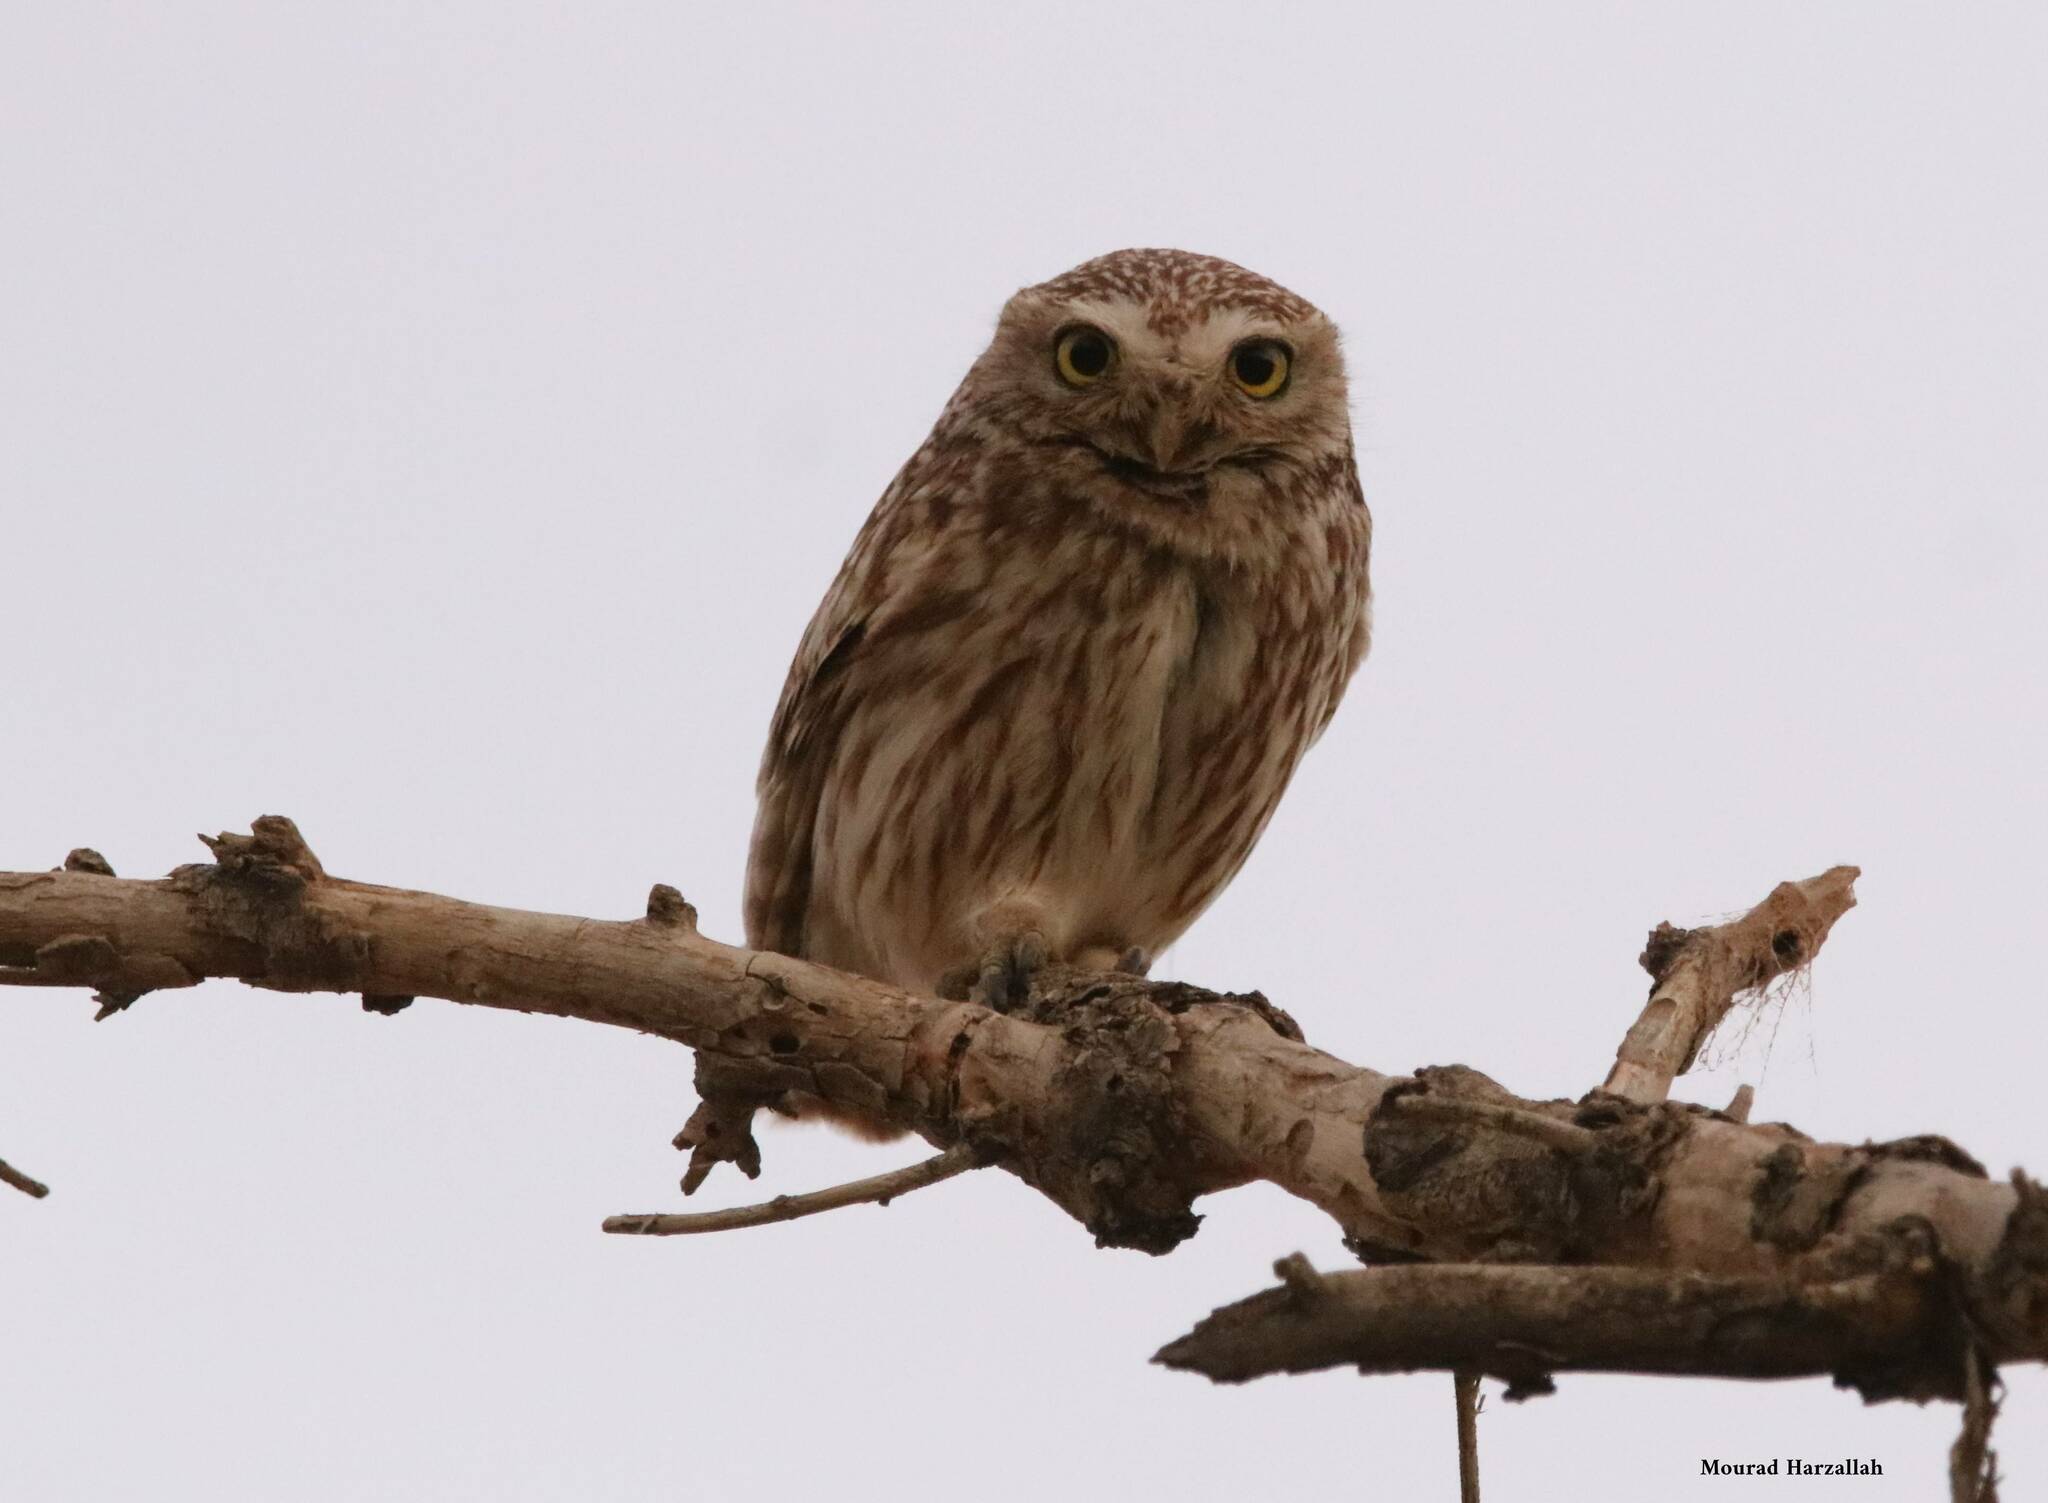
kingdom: Animalia
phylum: Chordata
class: Aves
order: Strigiformes
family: Strigidae
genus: Athene
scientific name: Athene noctua
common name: Little owl
